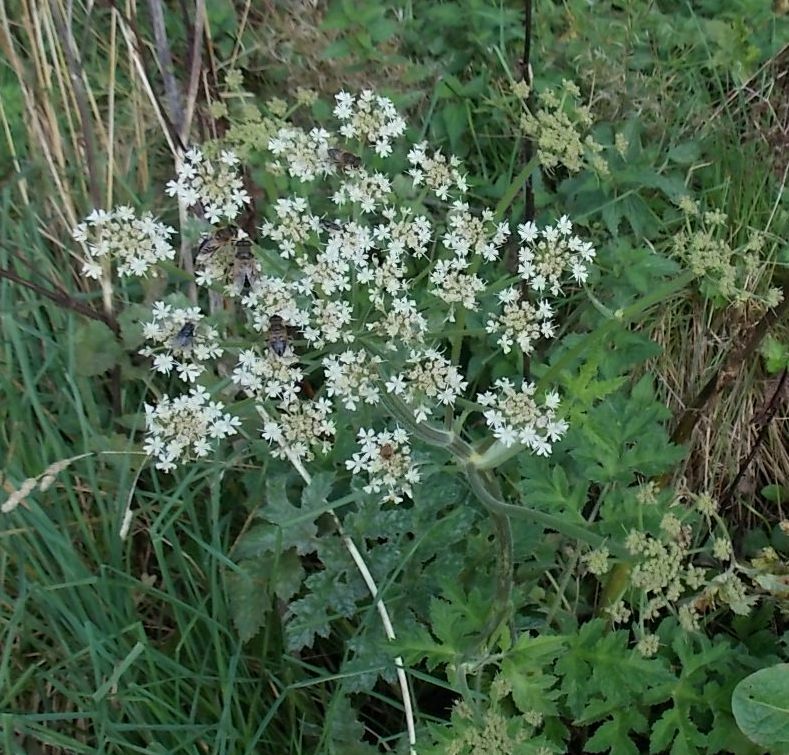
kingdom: Plantae
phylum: Tracheophyta
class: Magnoliopsida
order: Apiales
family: Apiaceae
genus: Heracleum
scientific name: Heracleum sphondylium
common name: Hogweed
